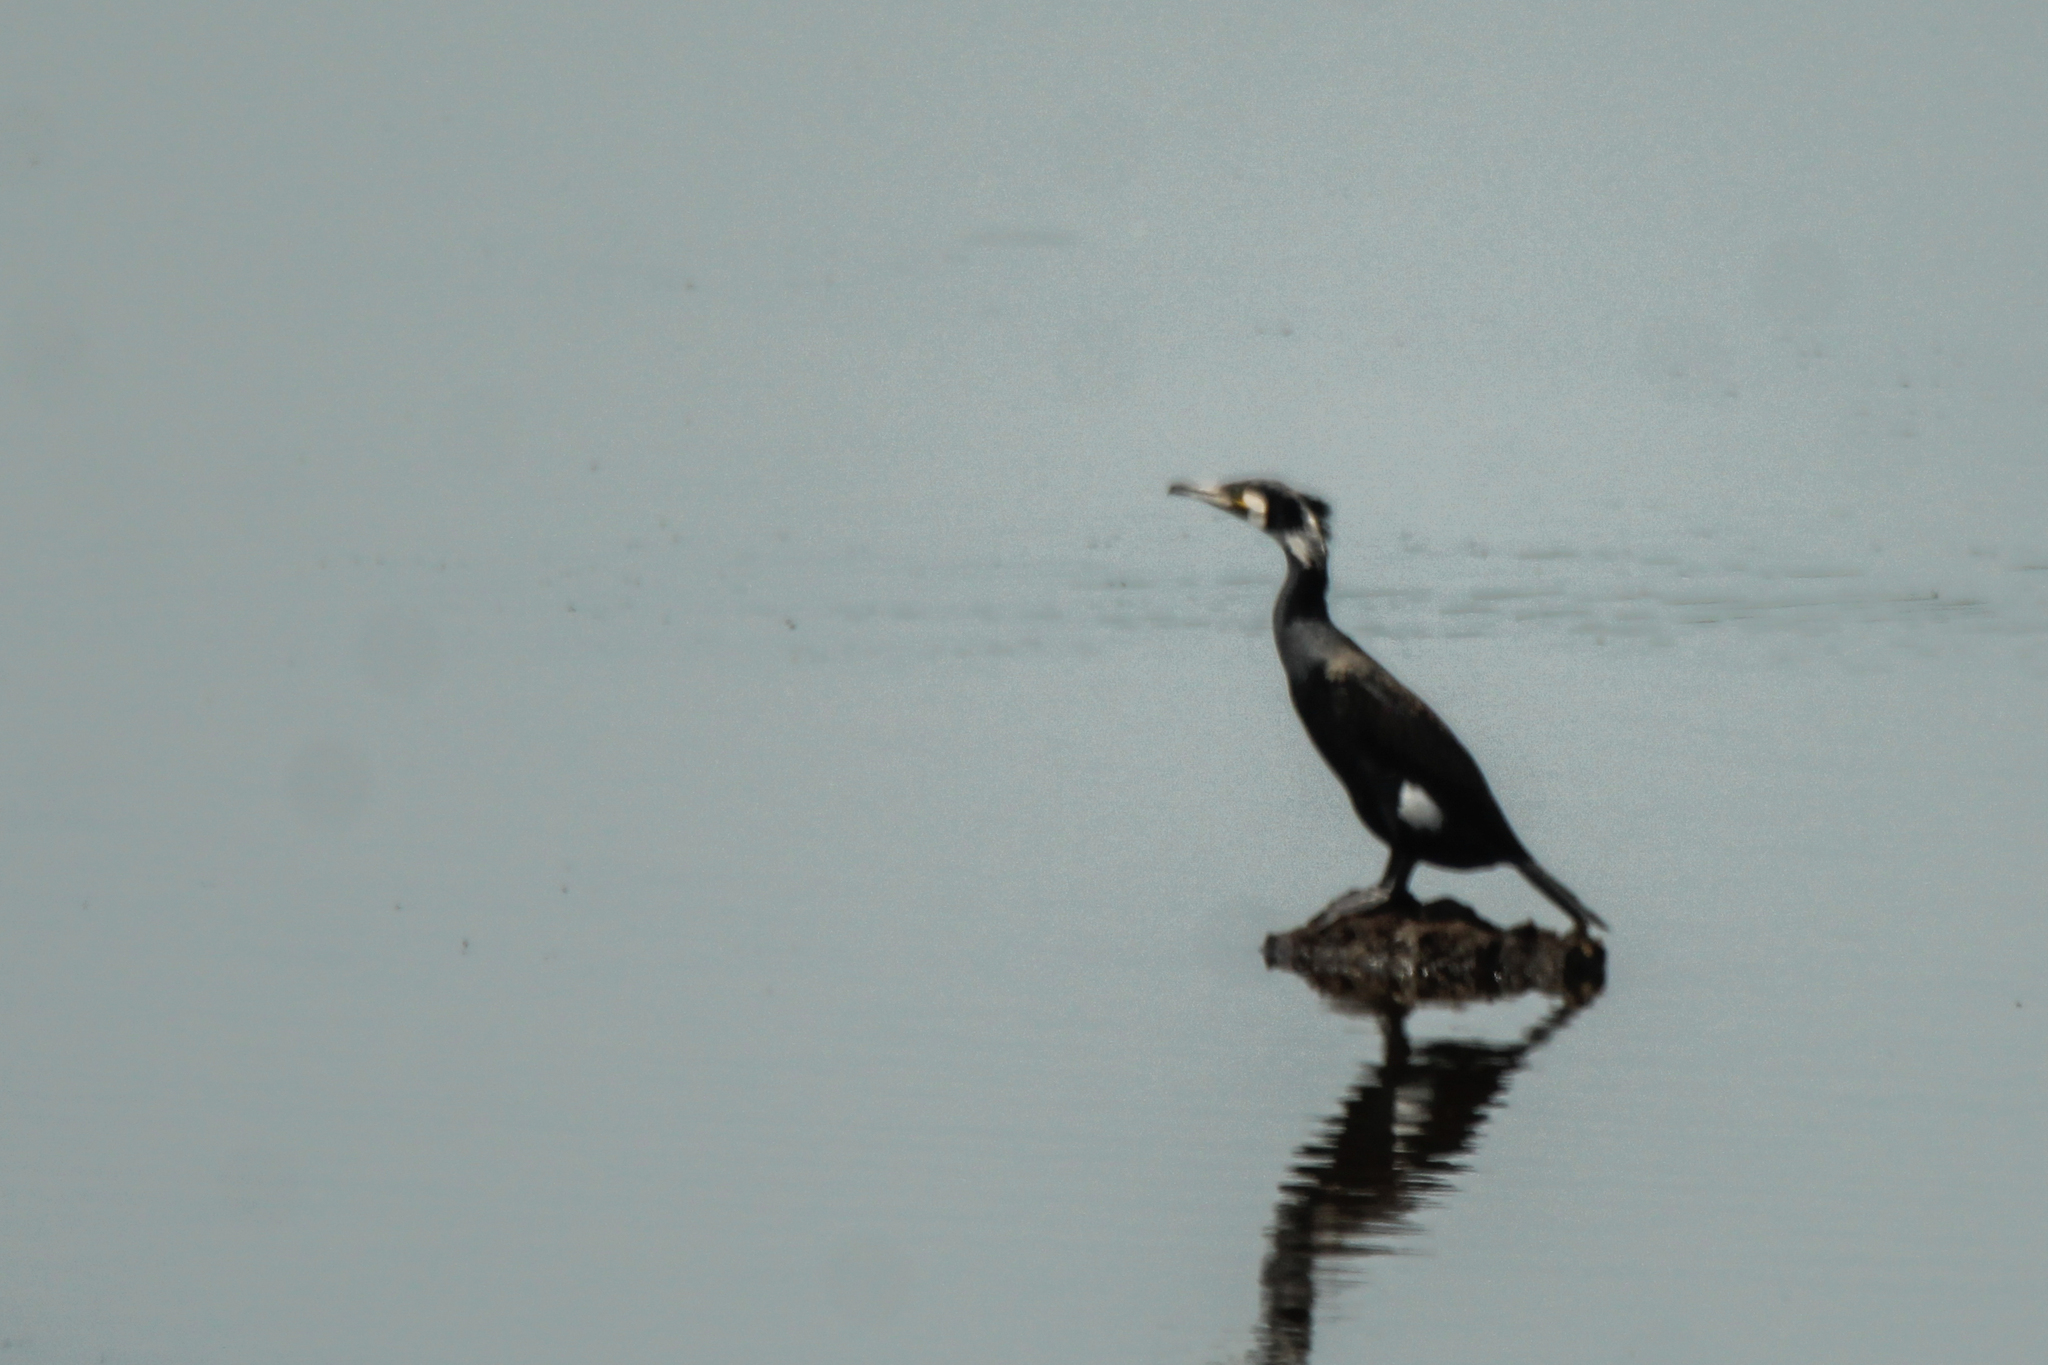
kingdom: Animalia
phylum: Chordata
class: Aves
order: Suliformes
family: Phalacrocoracidae
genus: Phalacrocorax
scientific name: Phalacrocorax carbo
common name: Great cormorant
